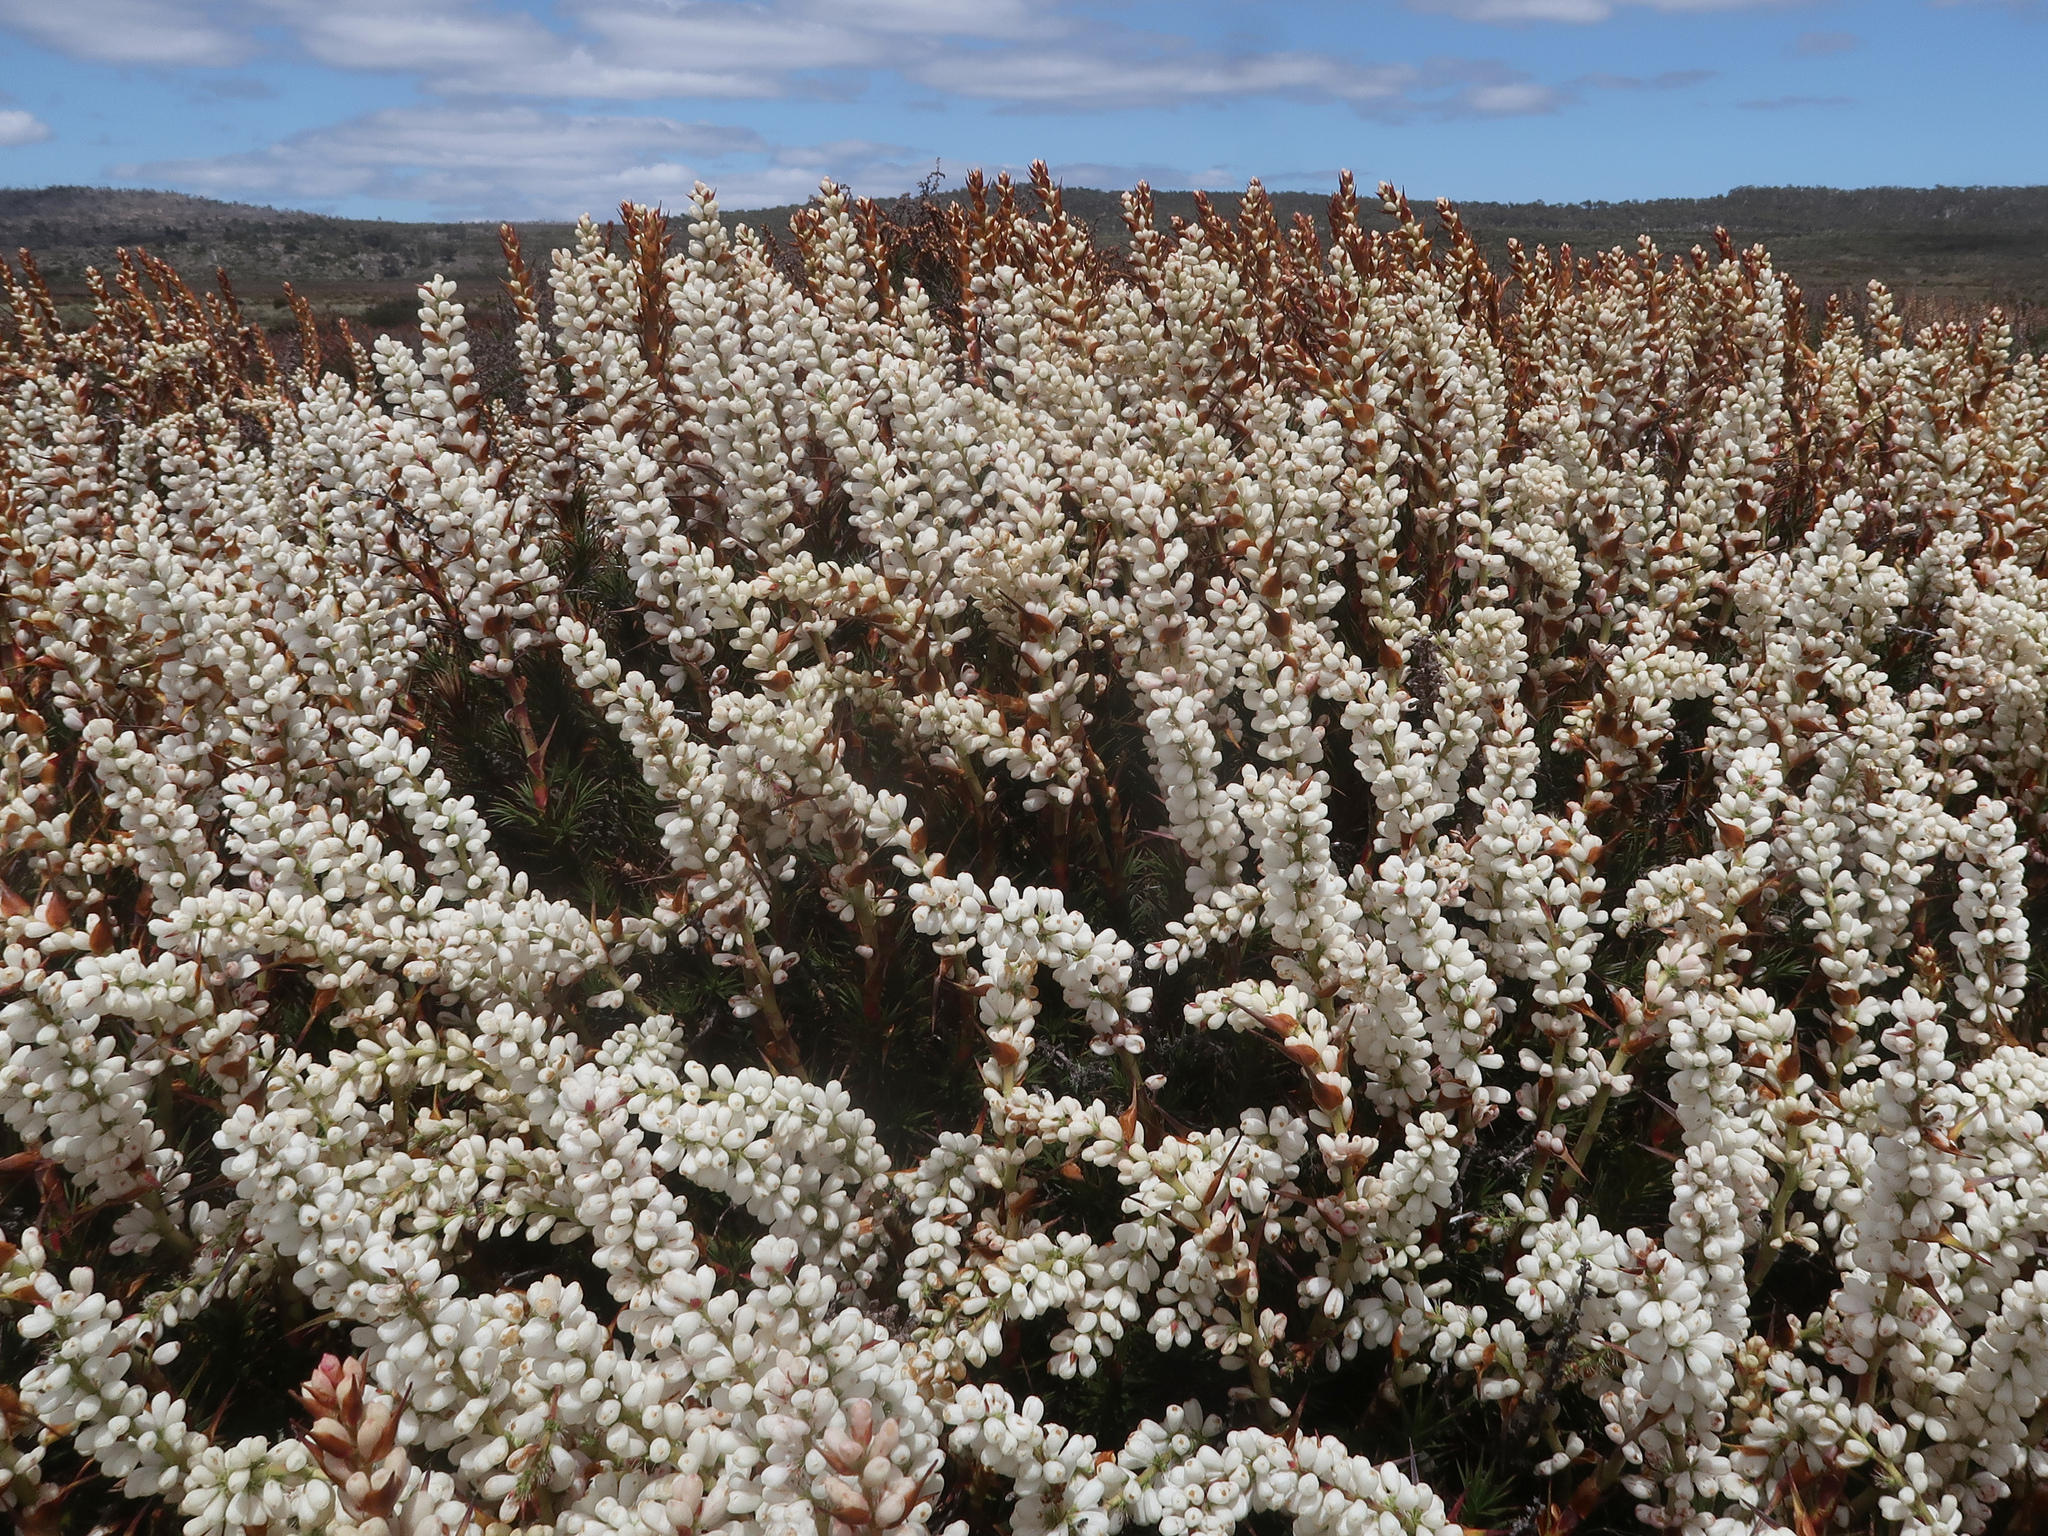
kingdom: Plantae
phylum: Tracheophyta
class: Magnoliopsida
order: Ericales
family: Ericaceae
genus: Dracophyllum
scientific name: Dracophyllum persistentifolium
